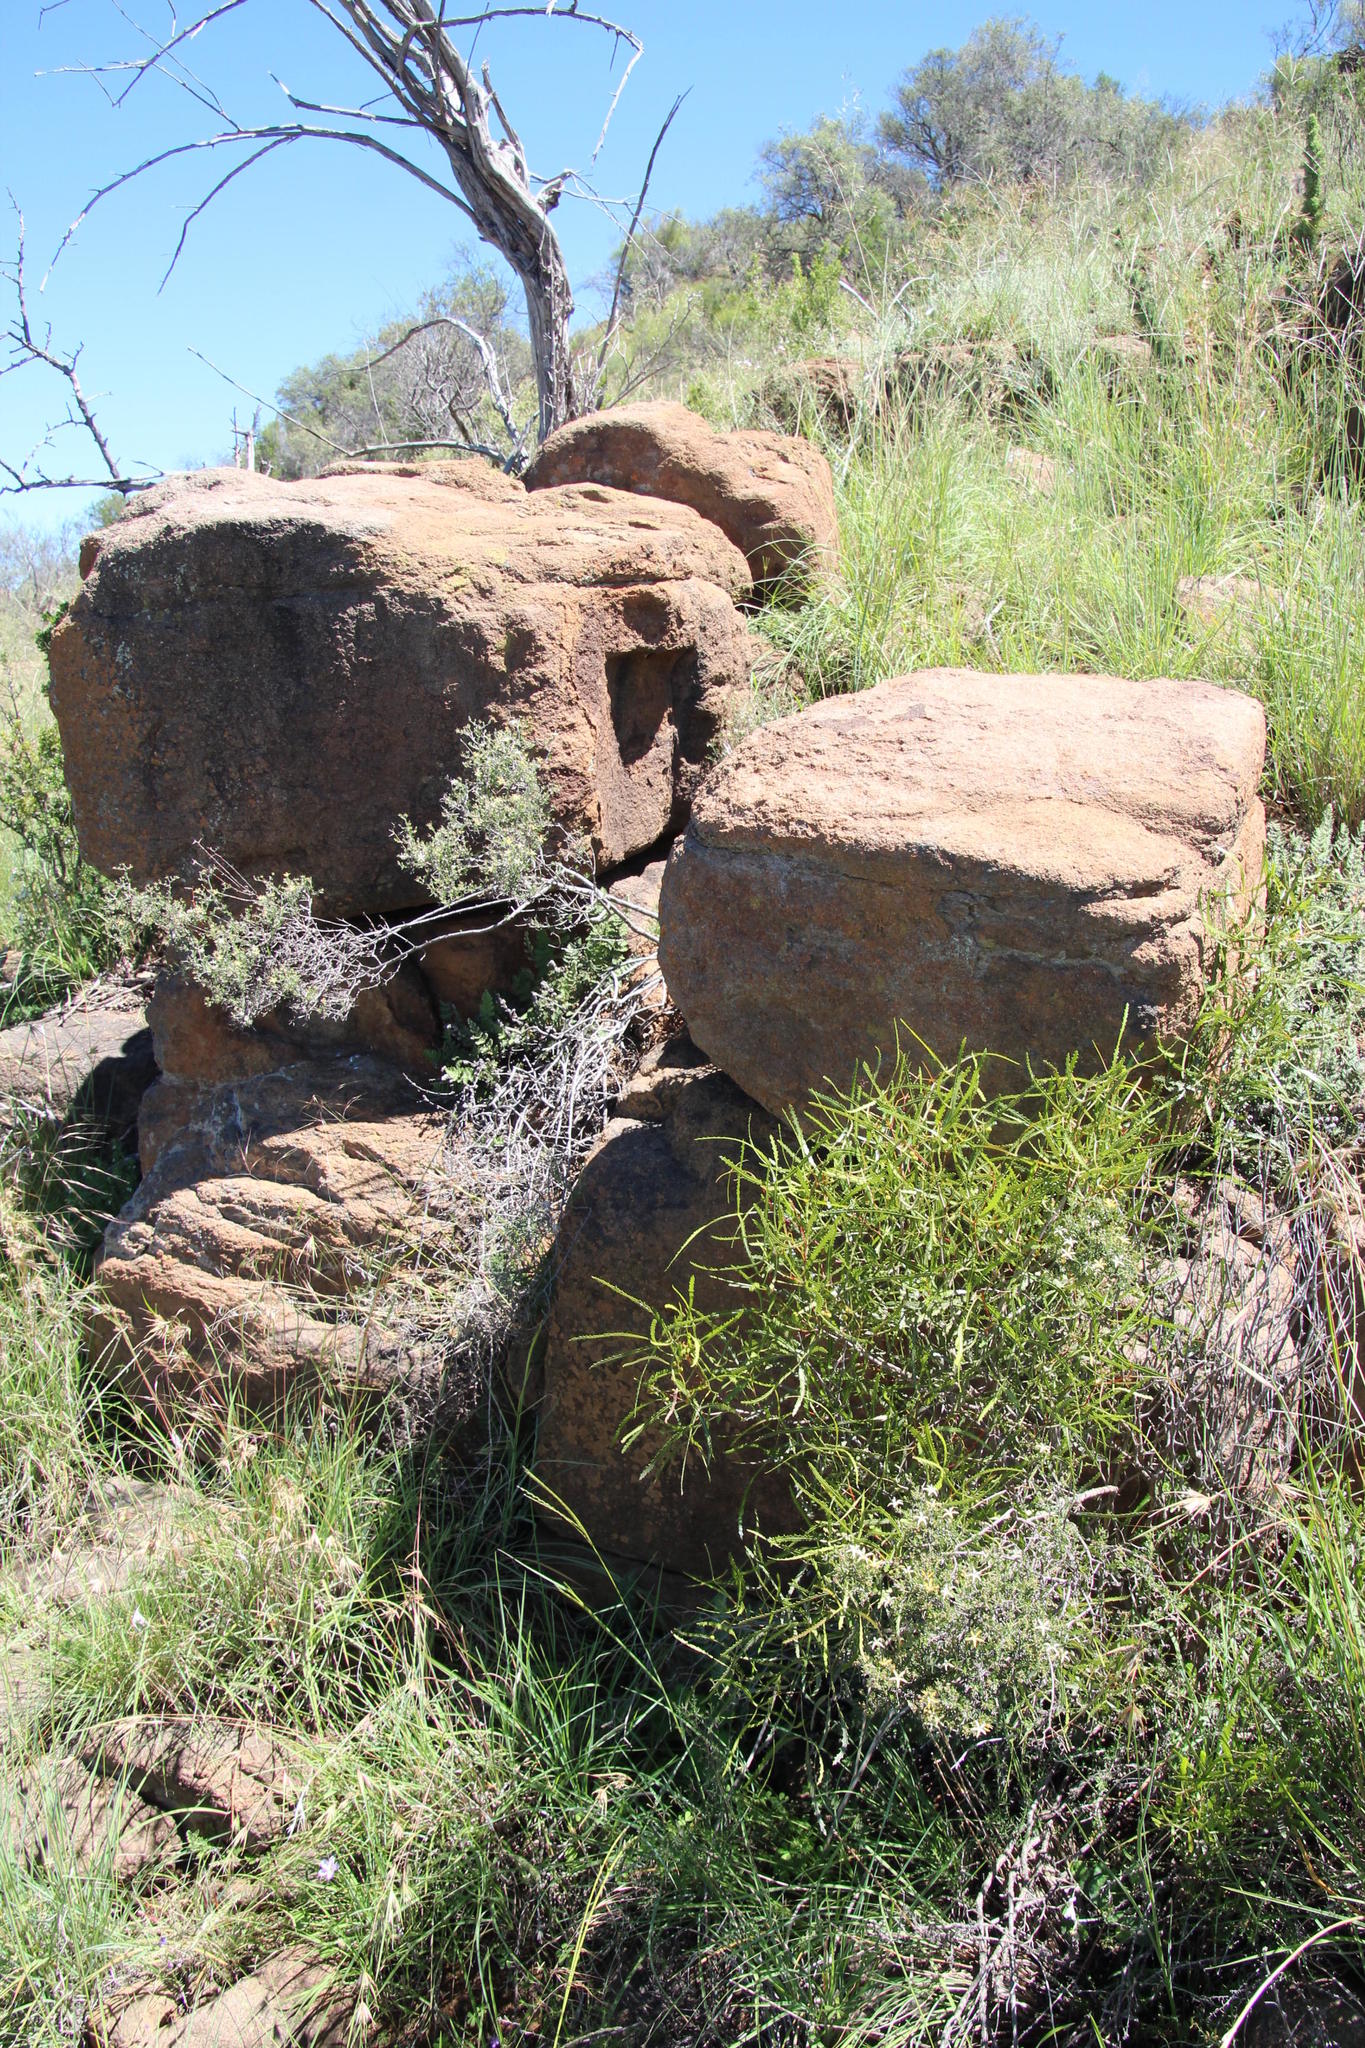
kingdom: Plantae
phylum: Tracheophyta
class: Magnoliopsida
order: Sapindales
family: Anacardiaceae
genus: Searsia
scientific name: Searsia erosa
